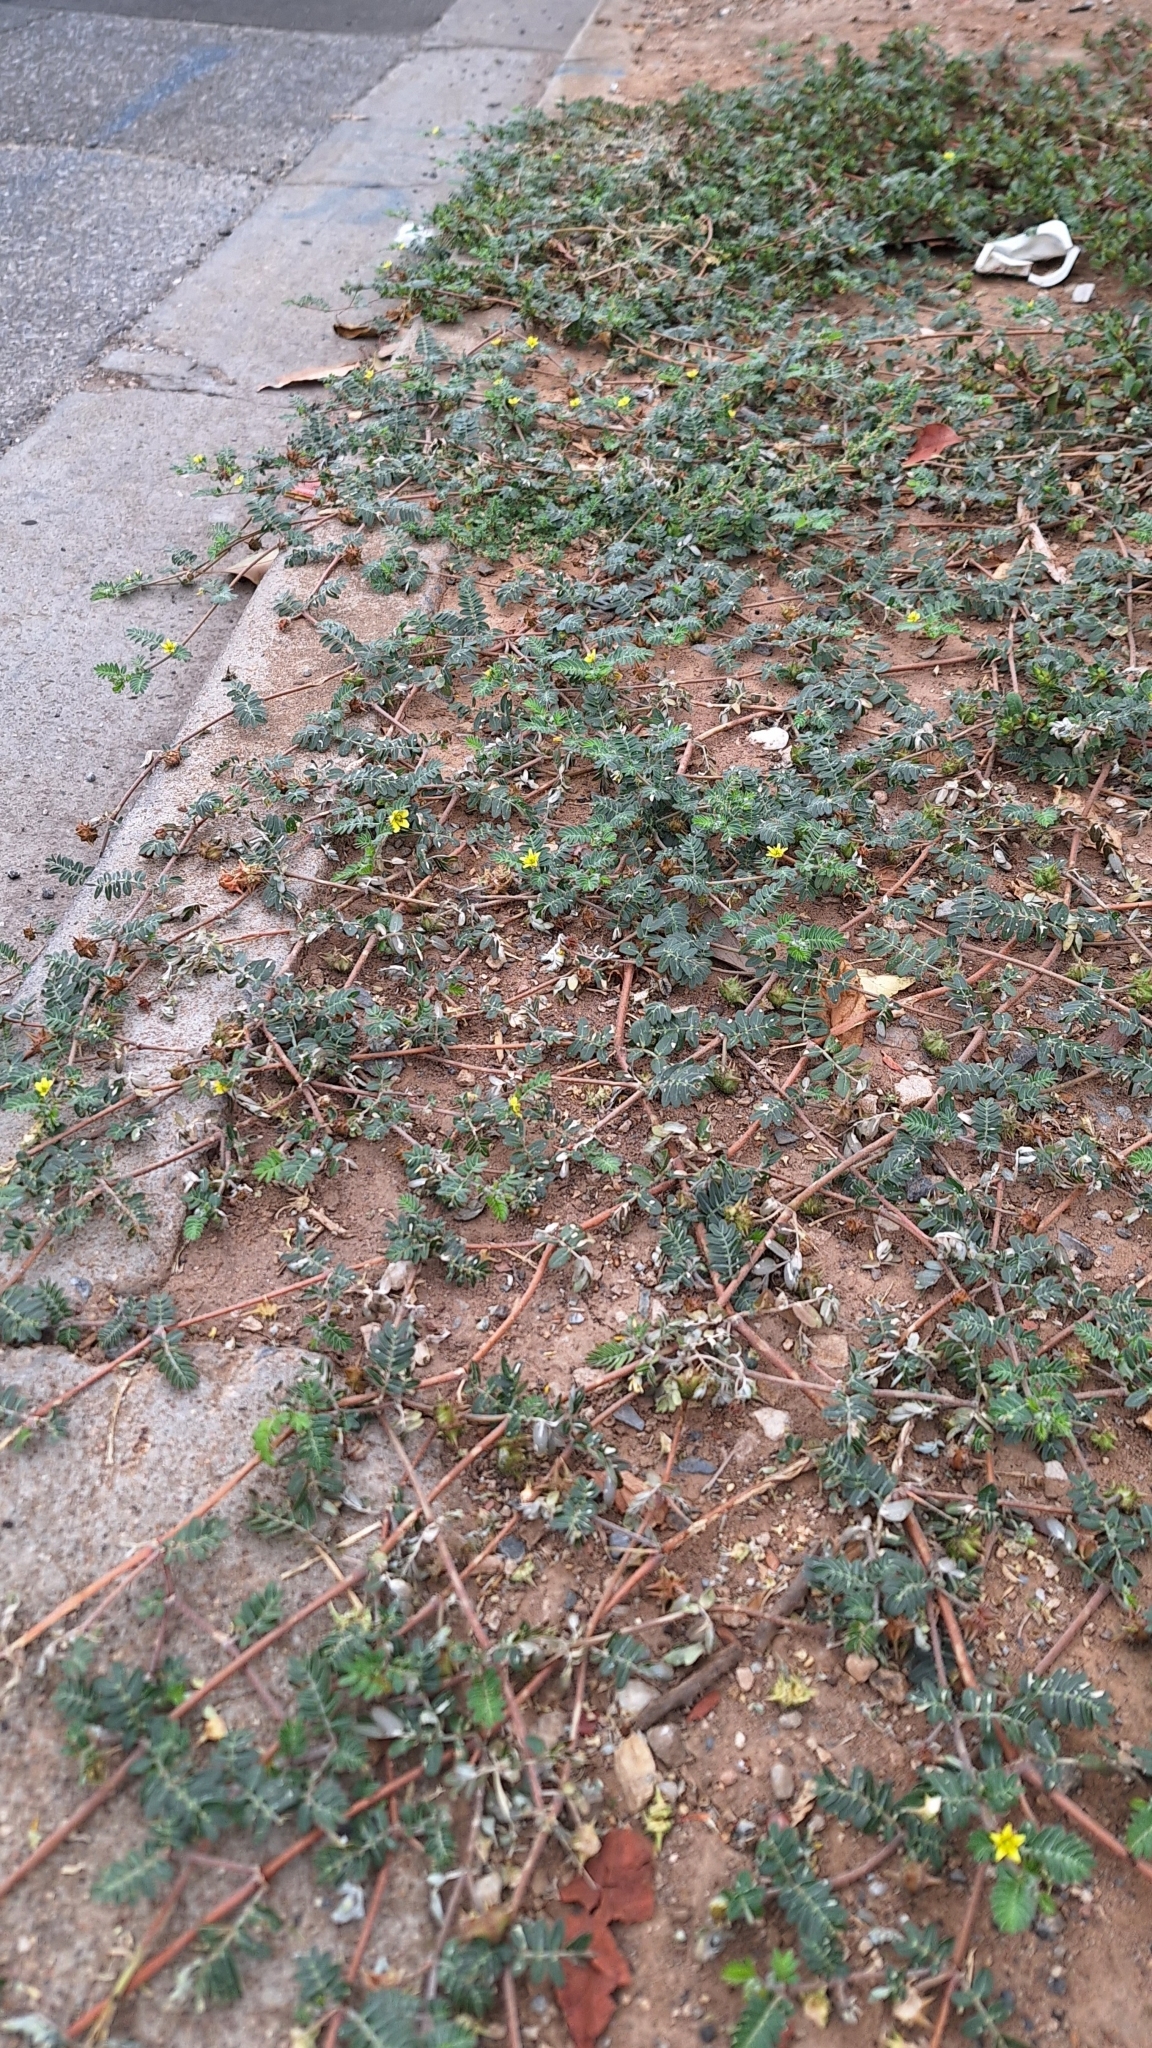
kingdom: Plantae
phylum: Tracheophyta
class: Magnoliopsida
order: Zygophyllales
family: Zygophyllaceae
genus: Tribulus
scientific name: Tribulus terrestris
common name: Puncturevine
